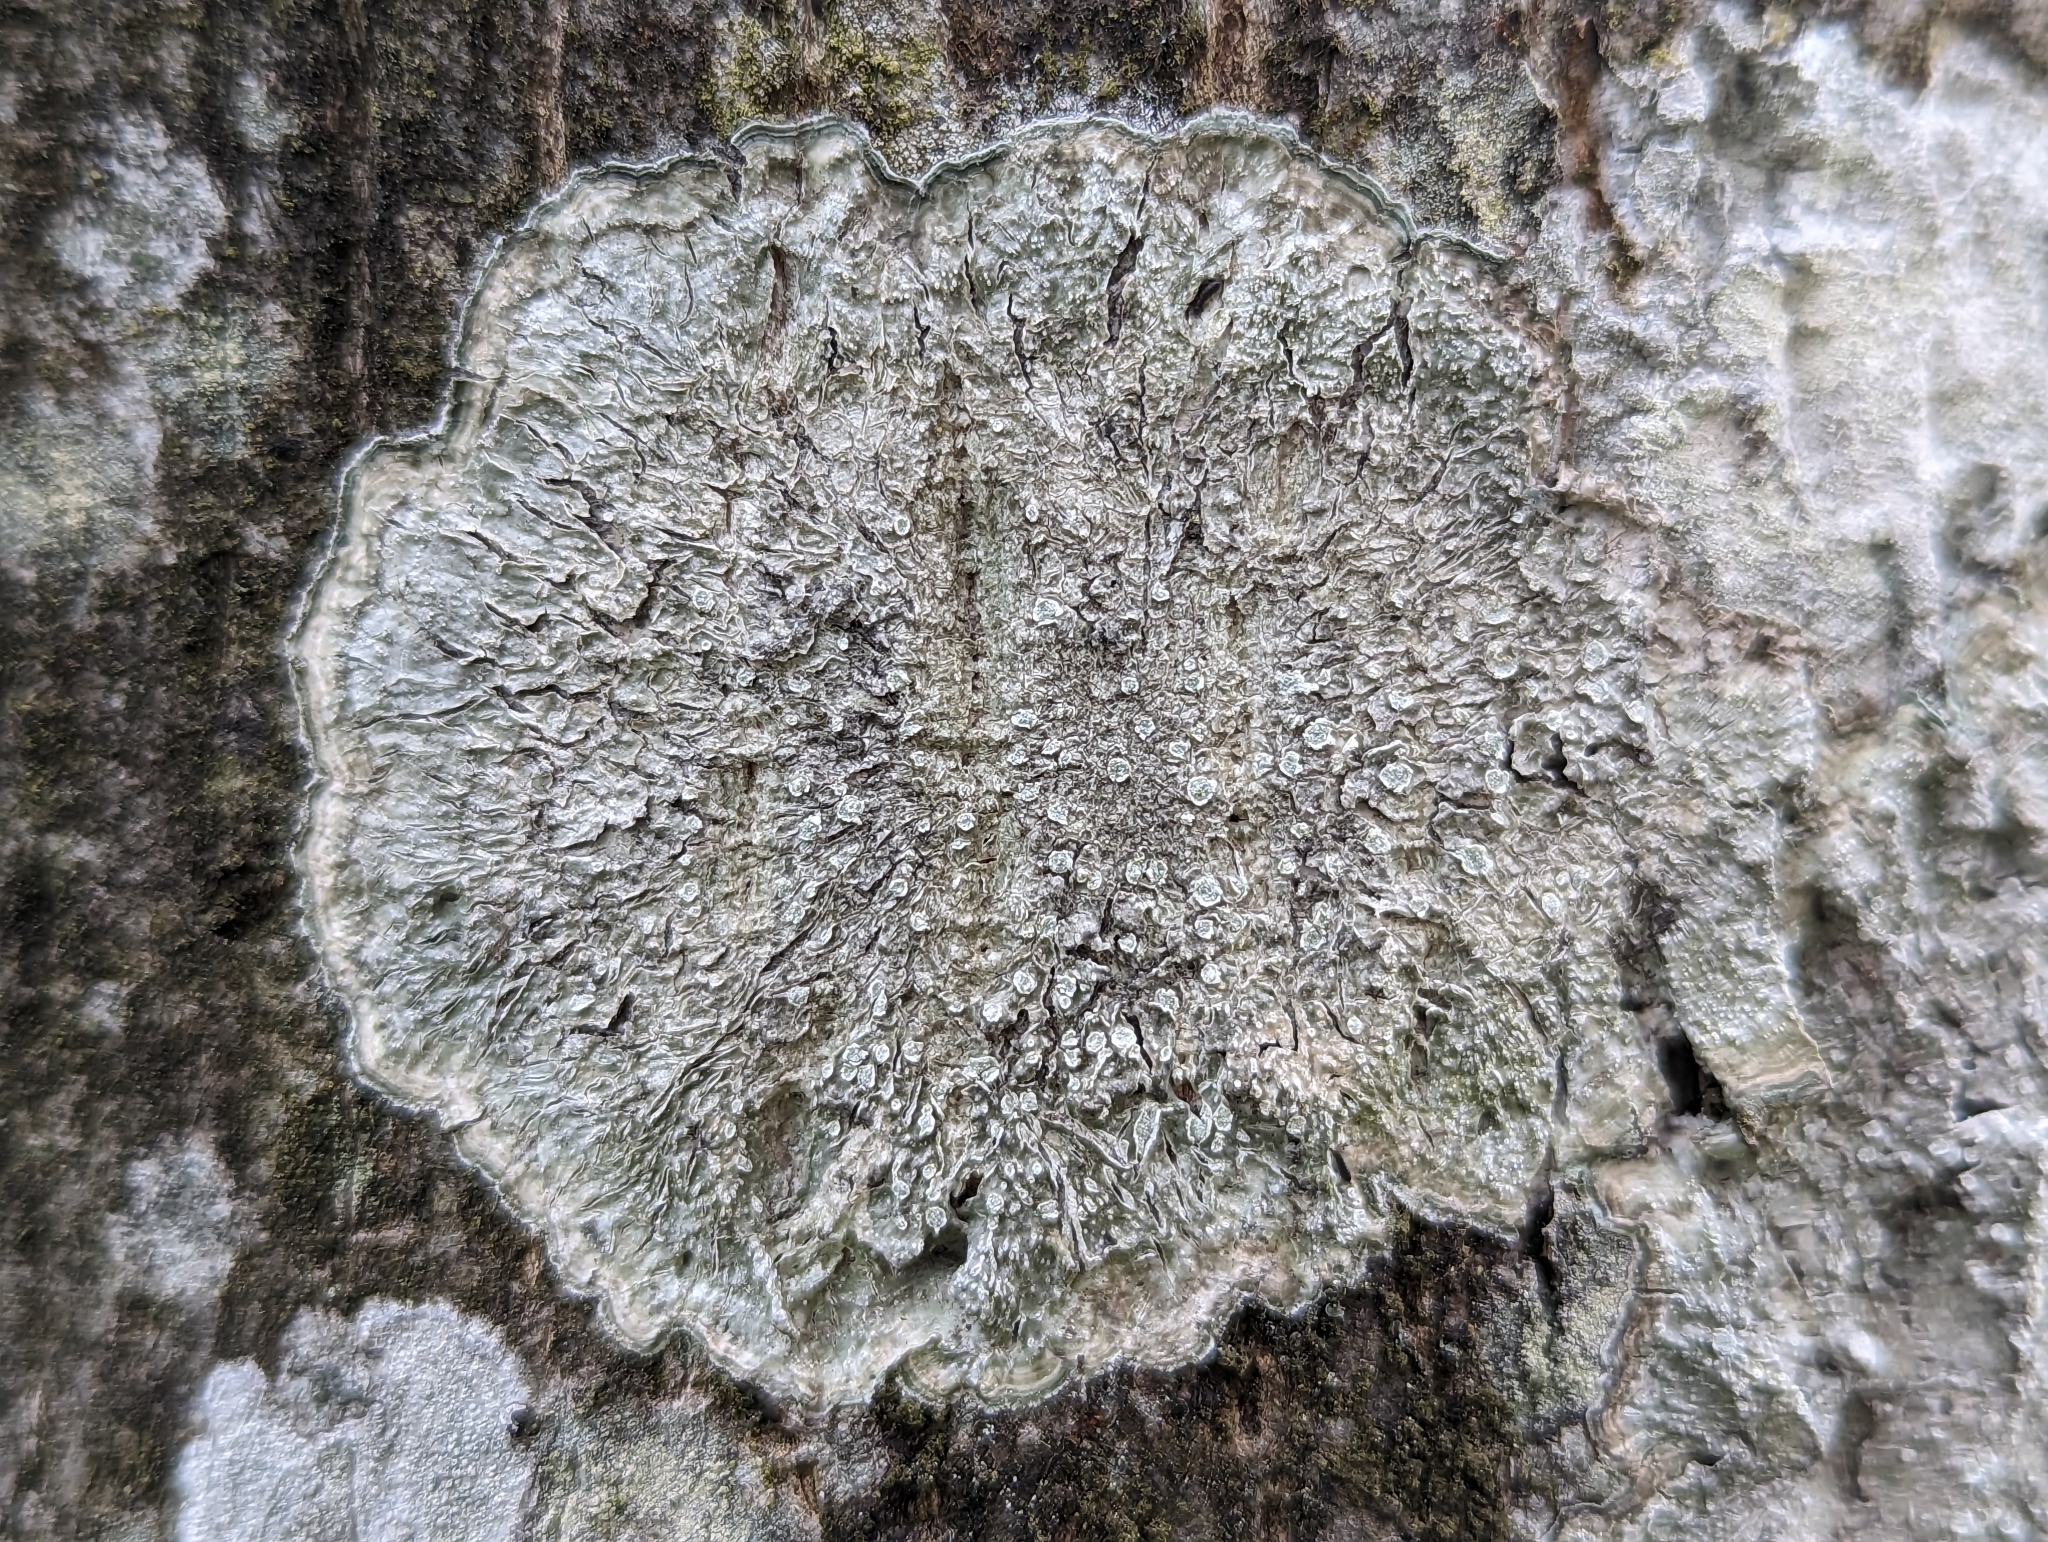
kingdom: Fungi
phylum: Ascomycota
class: Lecanoromycetes
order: Pertusariales
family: Pertusariaceae
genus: Lepra
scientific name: Lepra albescens
